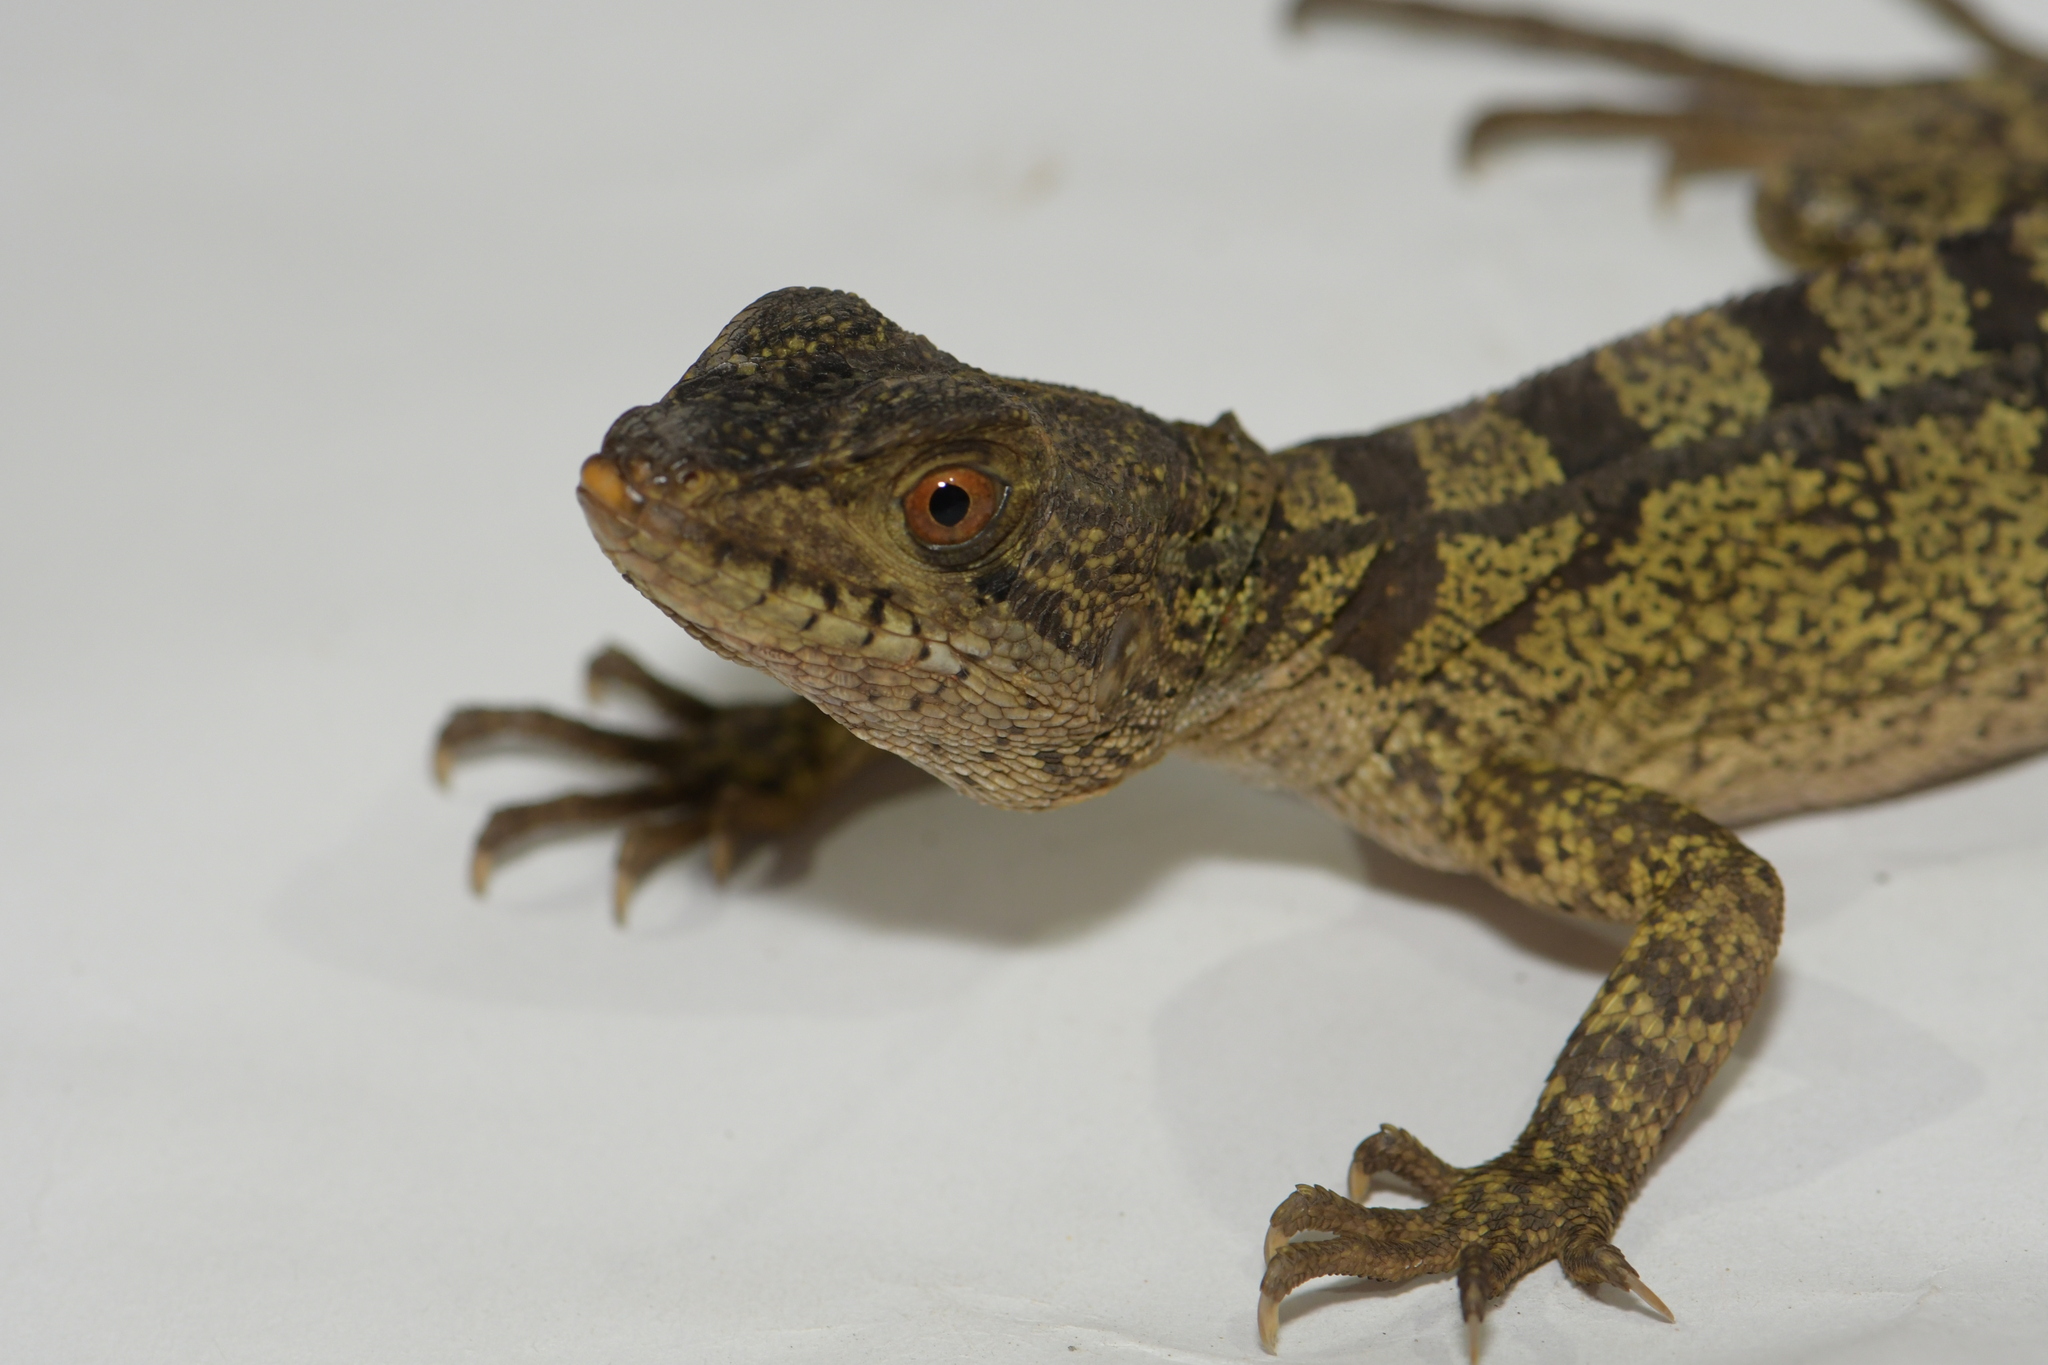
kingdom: Animalia
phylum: Chordata
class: Squamata
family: Corytophanidae
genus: Basiliscus
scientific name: Basiliscus vittatus
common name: Brown basilisk
